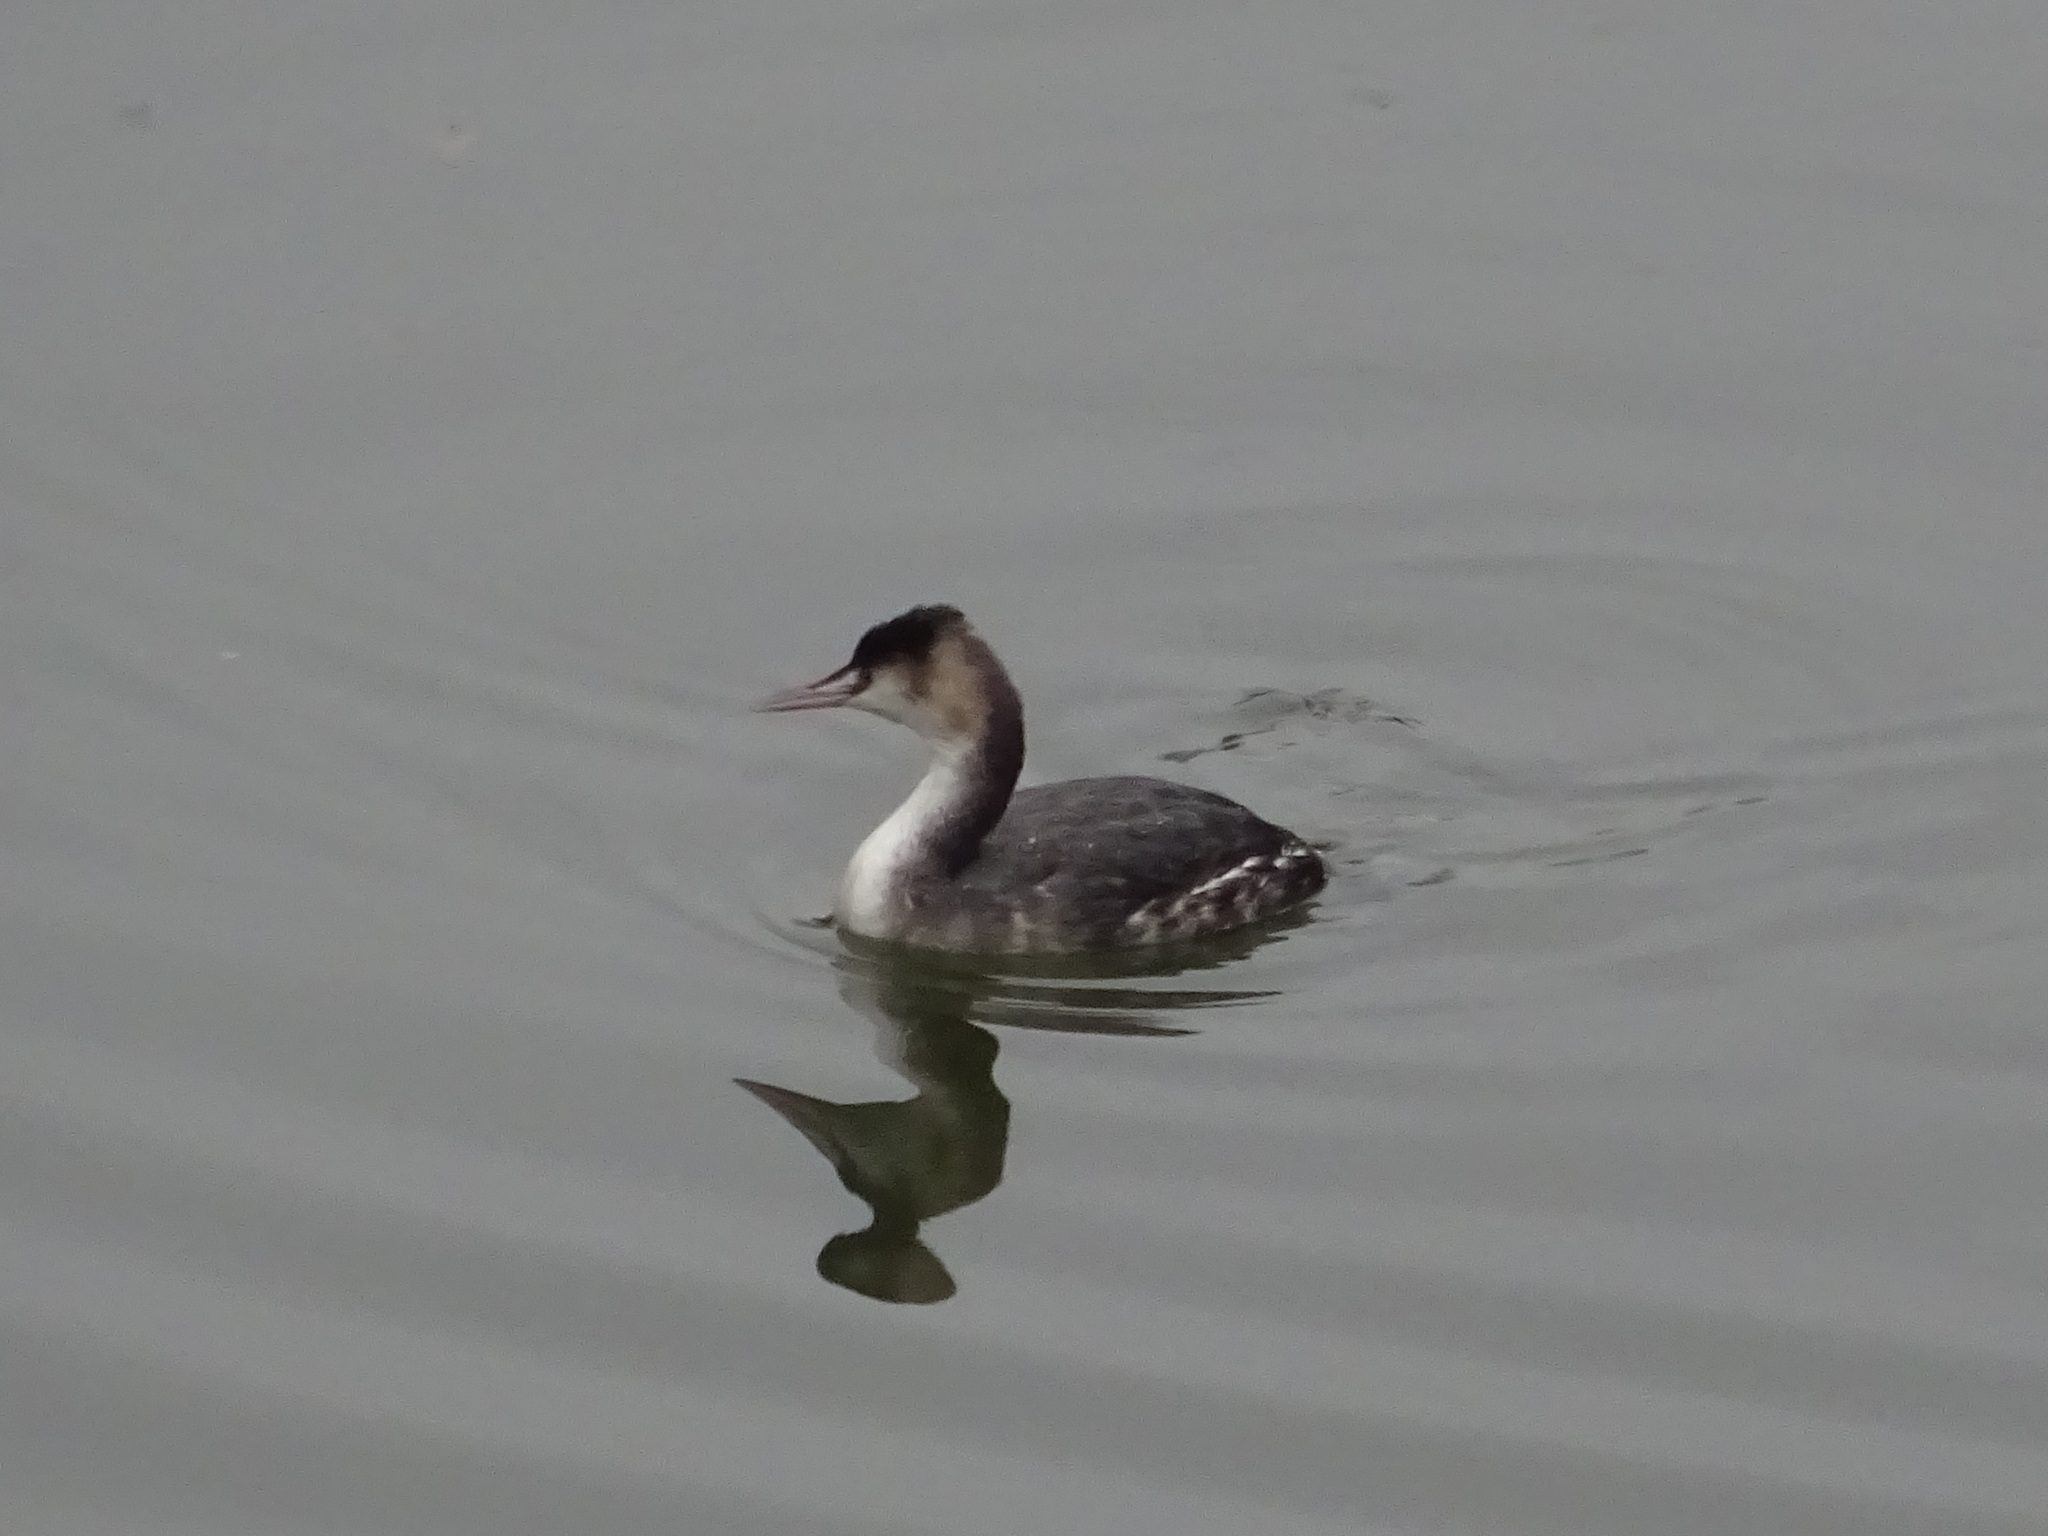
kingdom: Animalia
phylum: Chordata
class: Aves
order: Podicipediformes
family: Podicipedidae
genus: Podiceps
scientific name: Podiceps cristatus
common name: Great crested grebe
